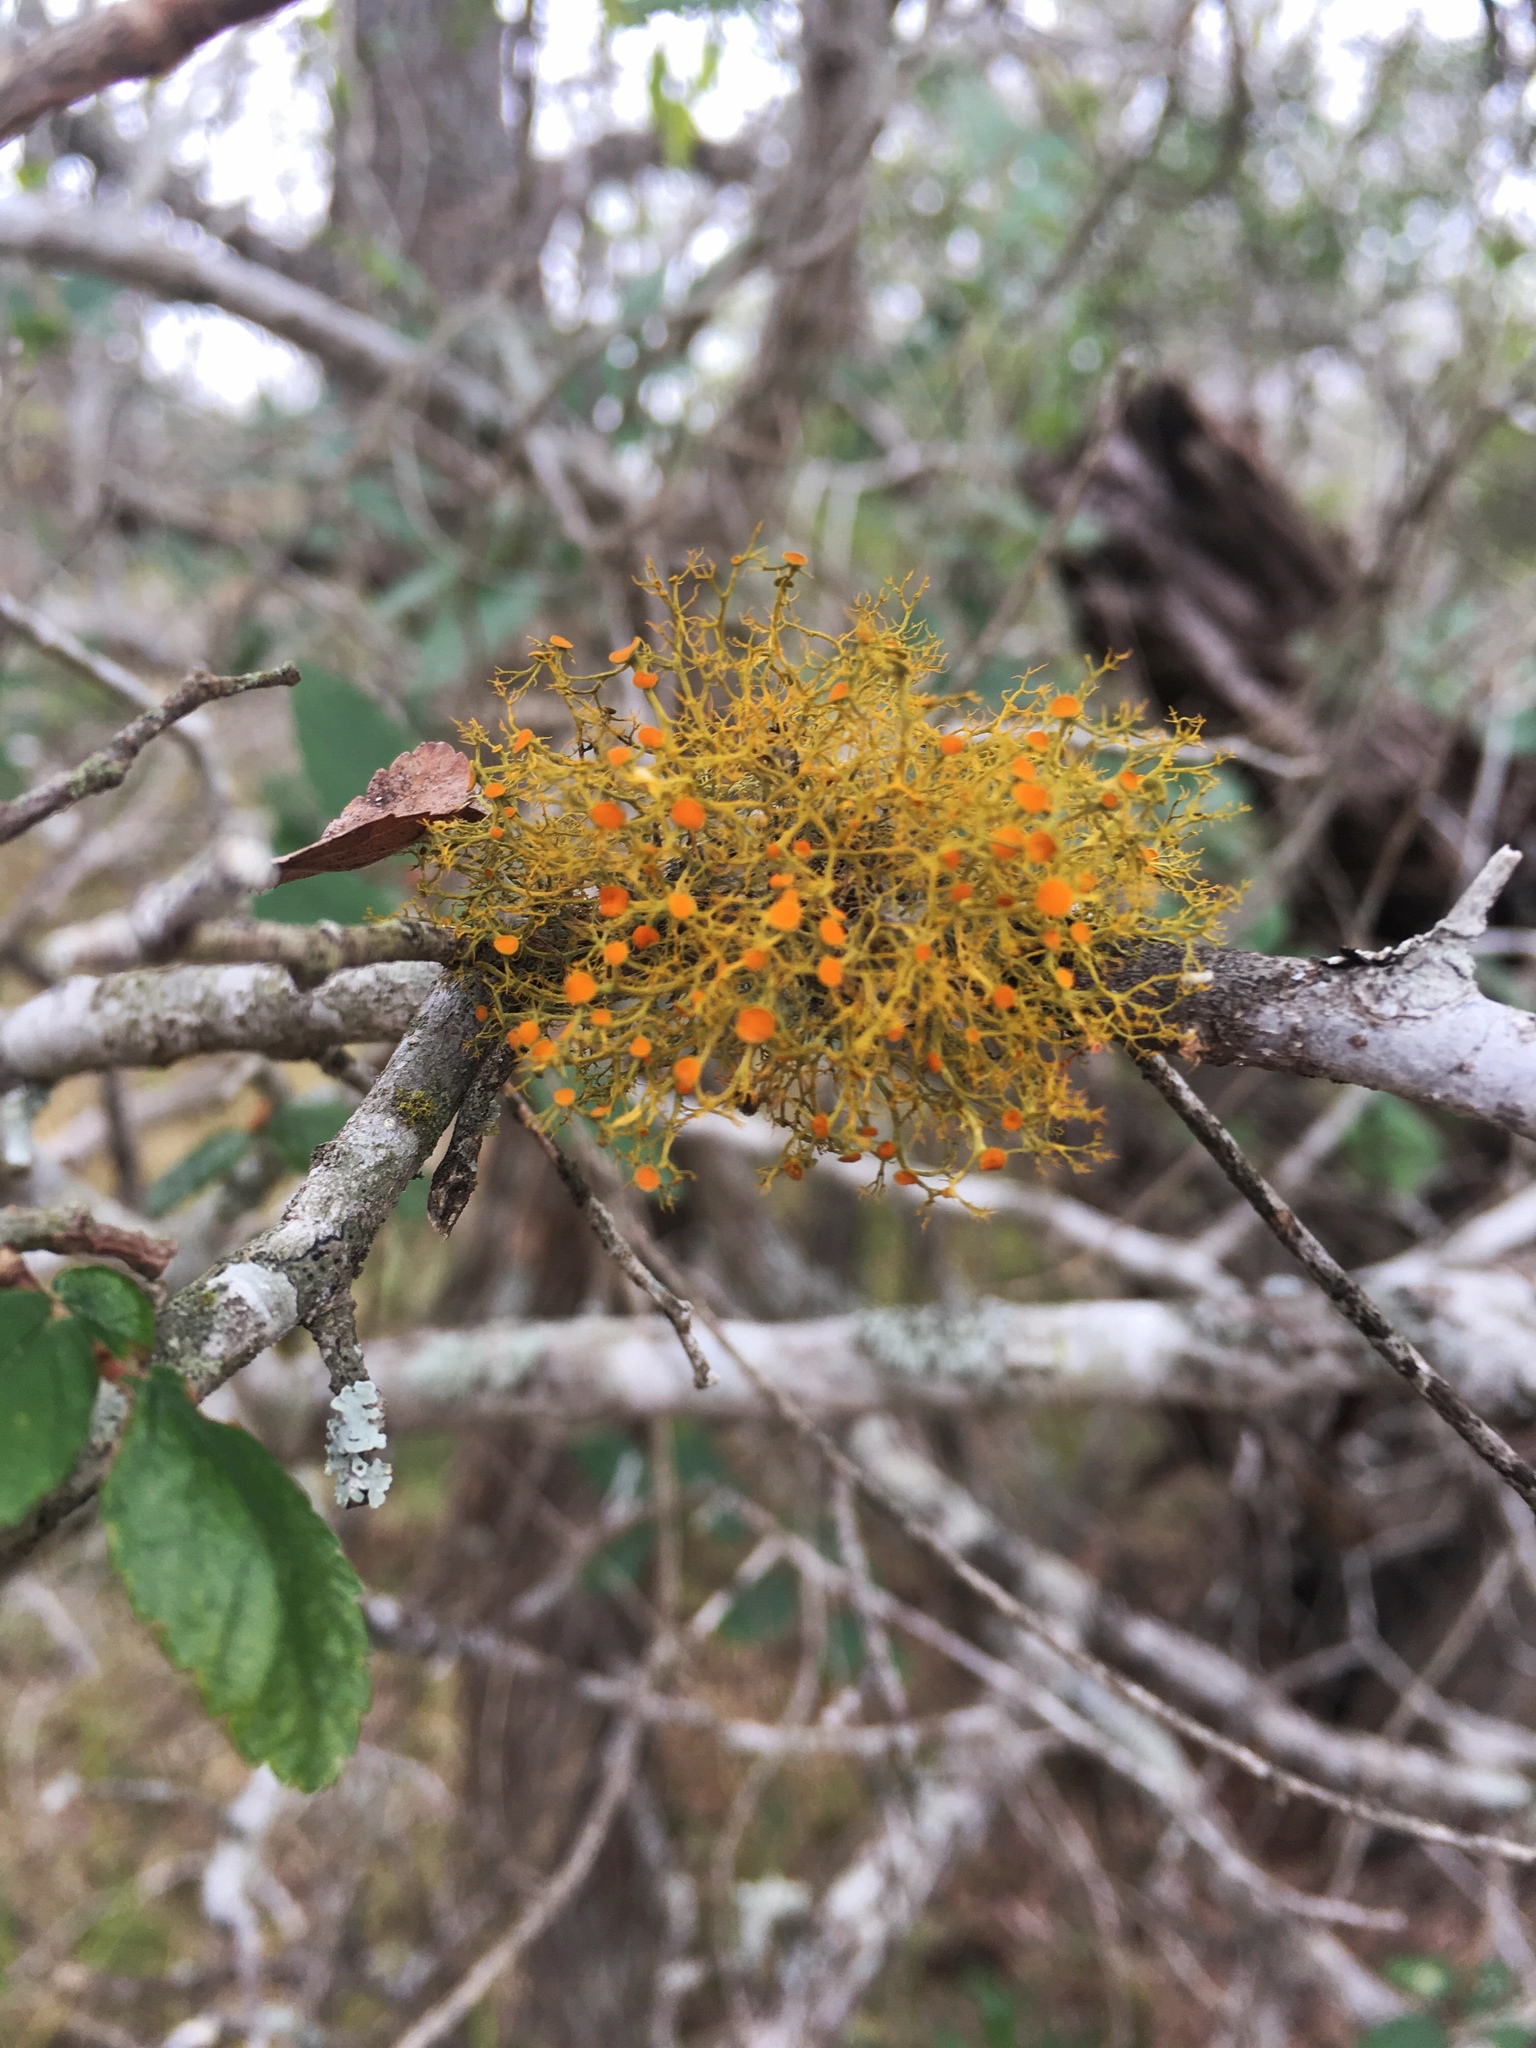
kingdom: Fungi
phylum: Ascomycota
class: Lecanoromycetes
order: Teloschistales
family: Teloschistaceae
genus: Teloschistes
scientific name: Teloschistes exilis
